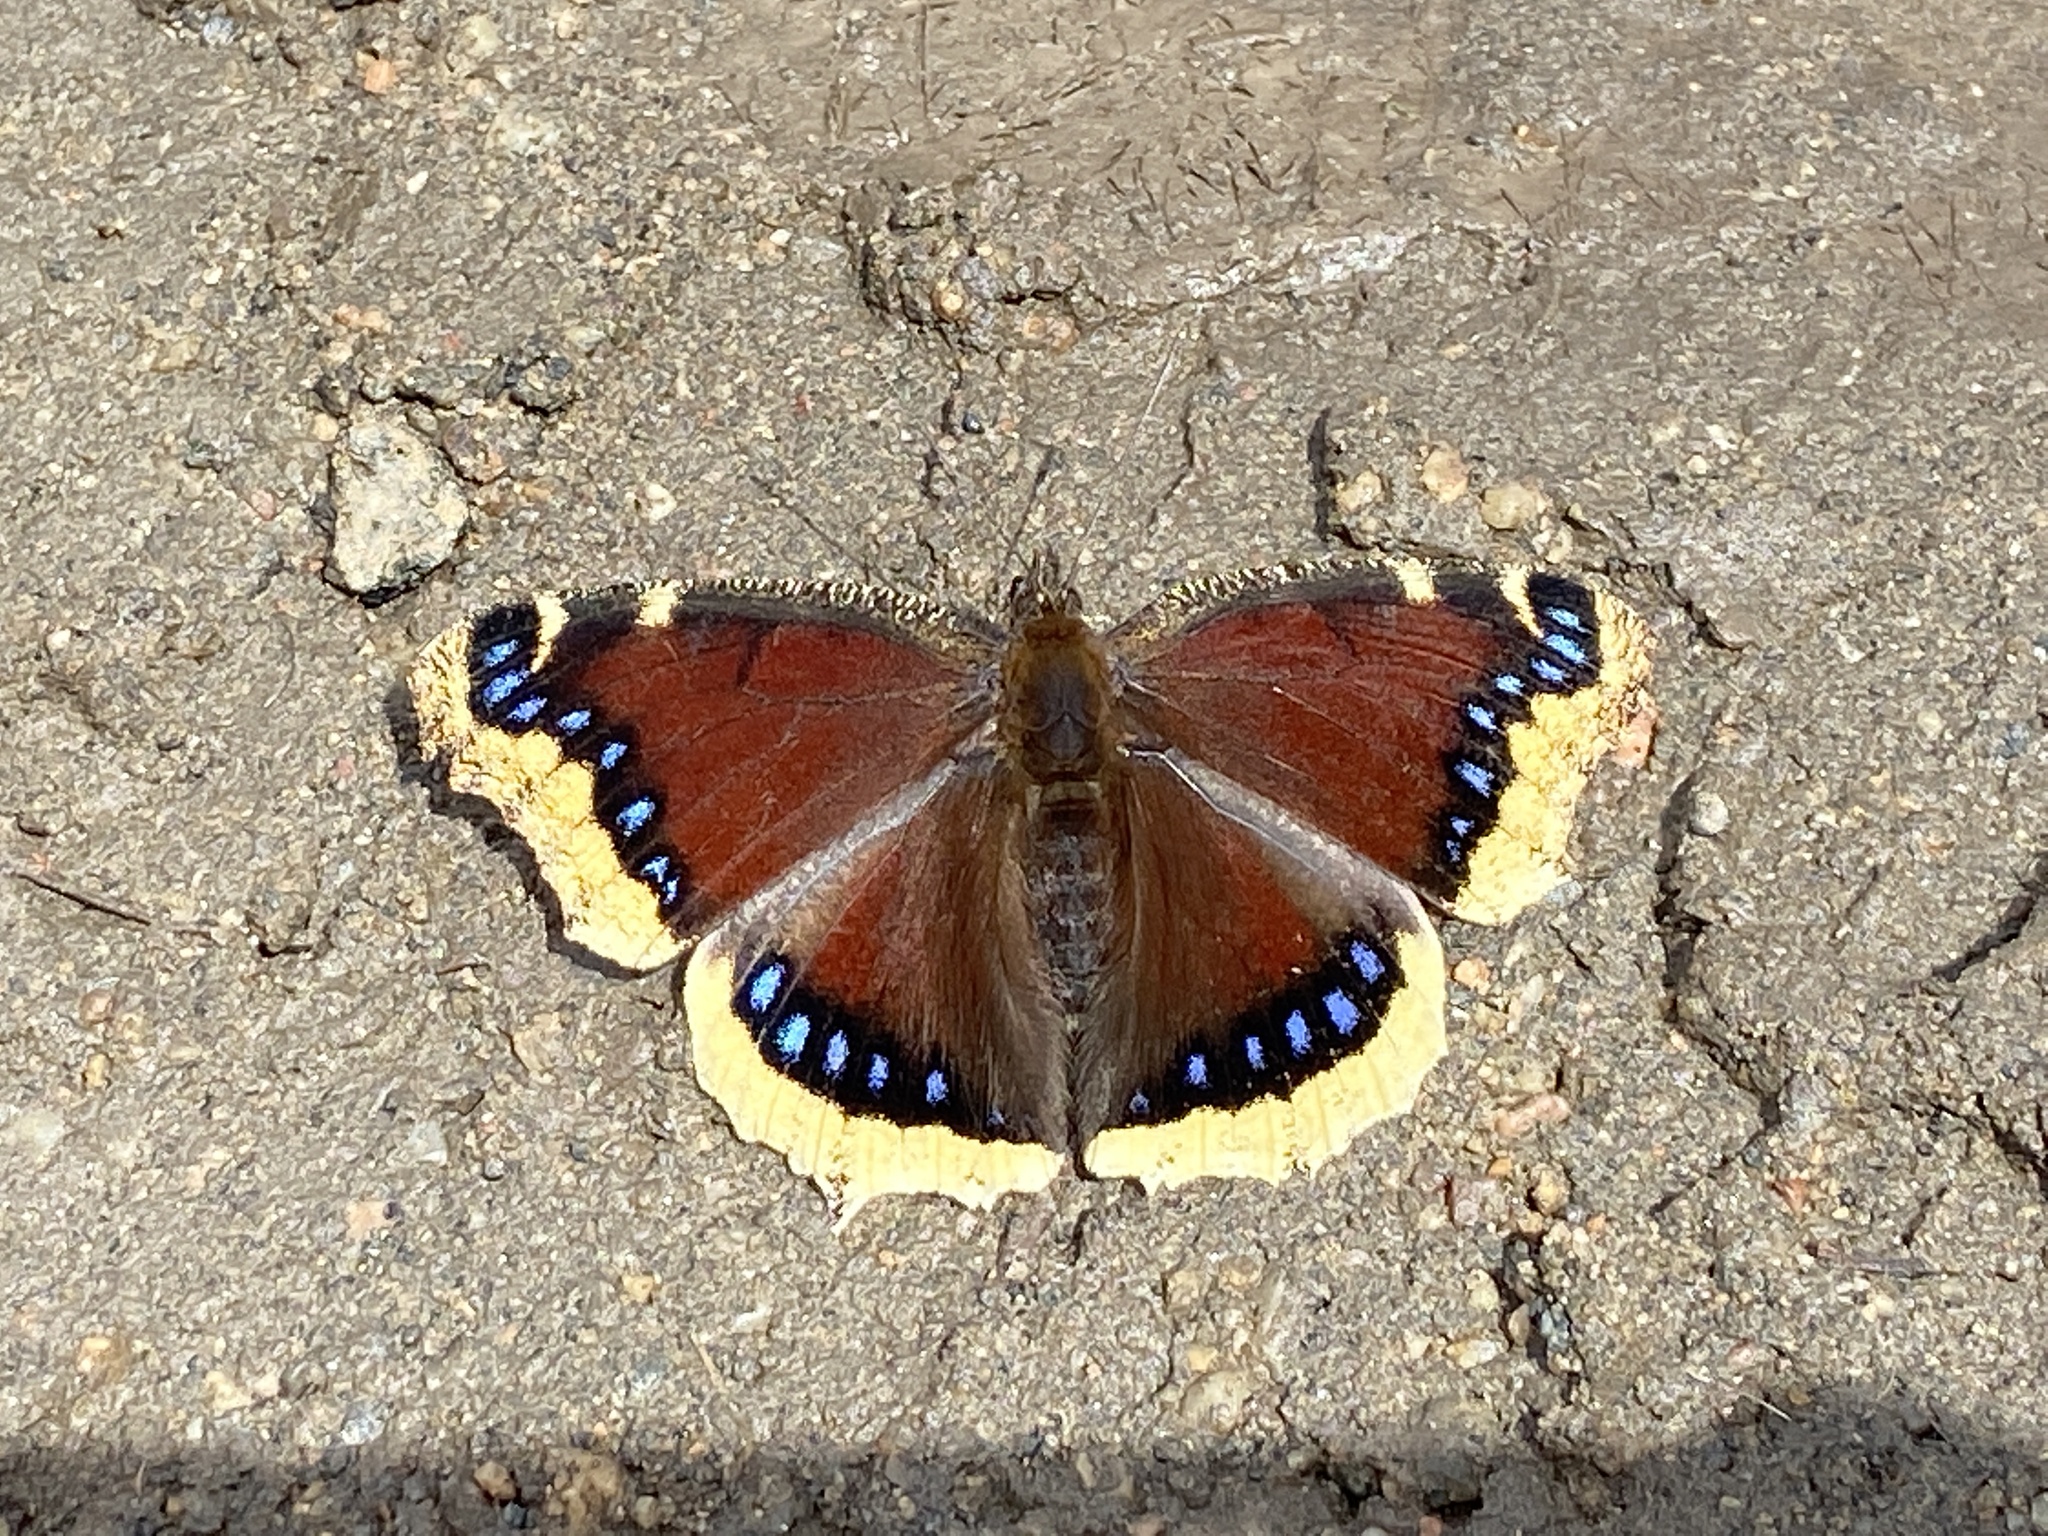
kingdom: Animalia
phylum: Arthropoda
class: Insecta
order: Lepidoptera
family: Nymphalidae
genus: Nymphalis
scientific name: Nymphalis antiopa
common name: Camberwell beauty
